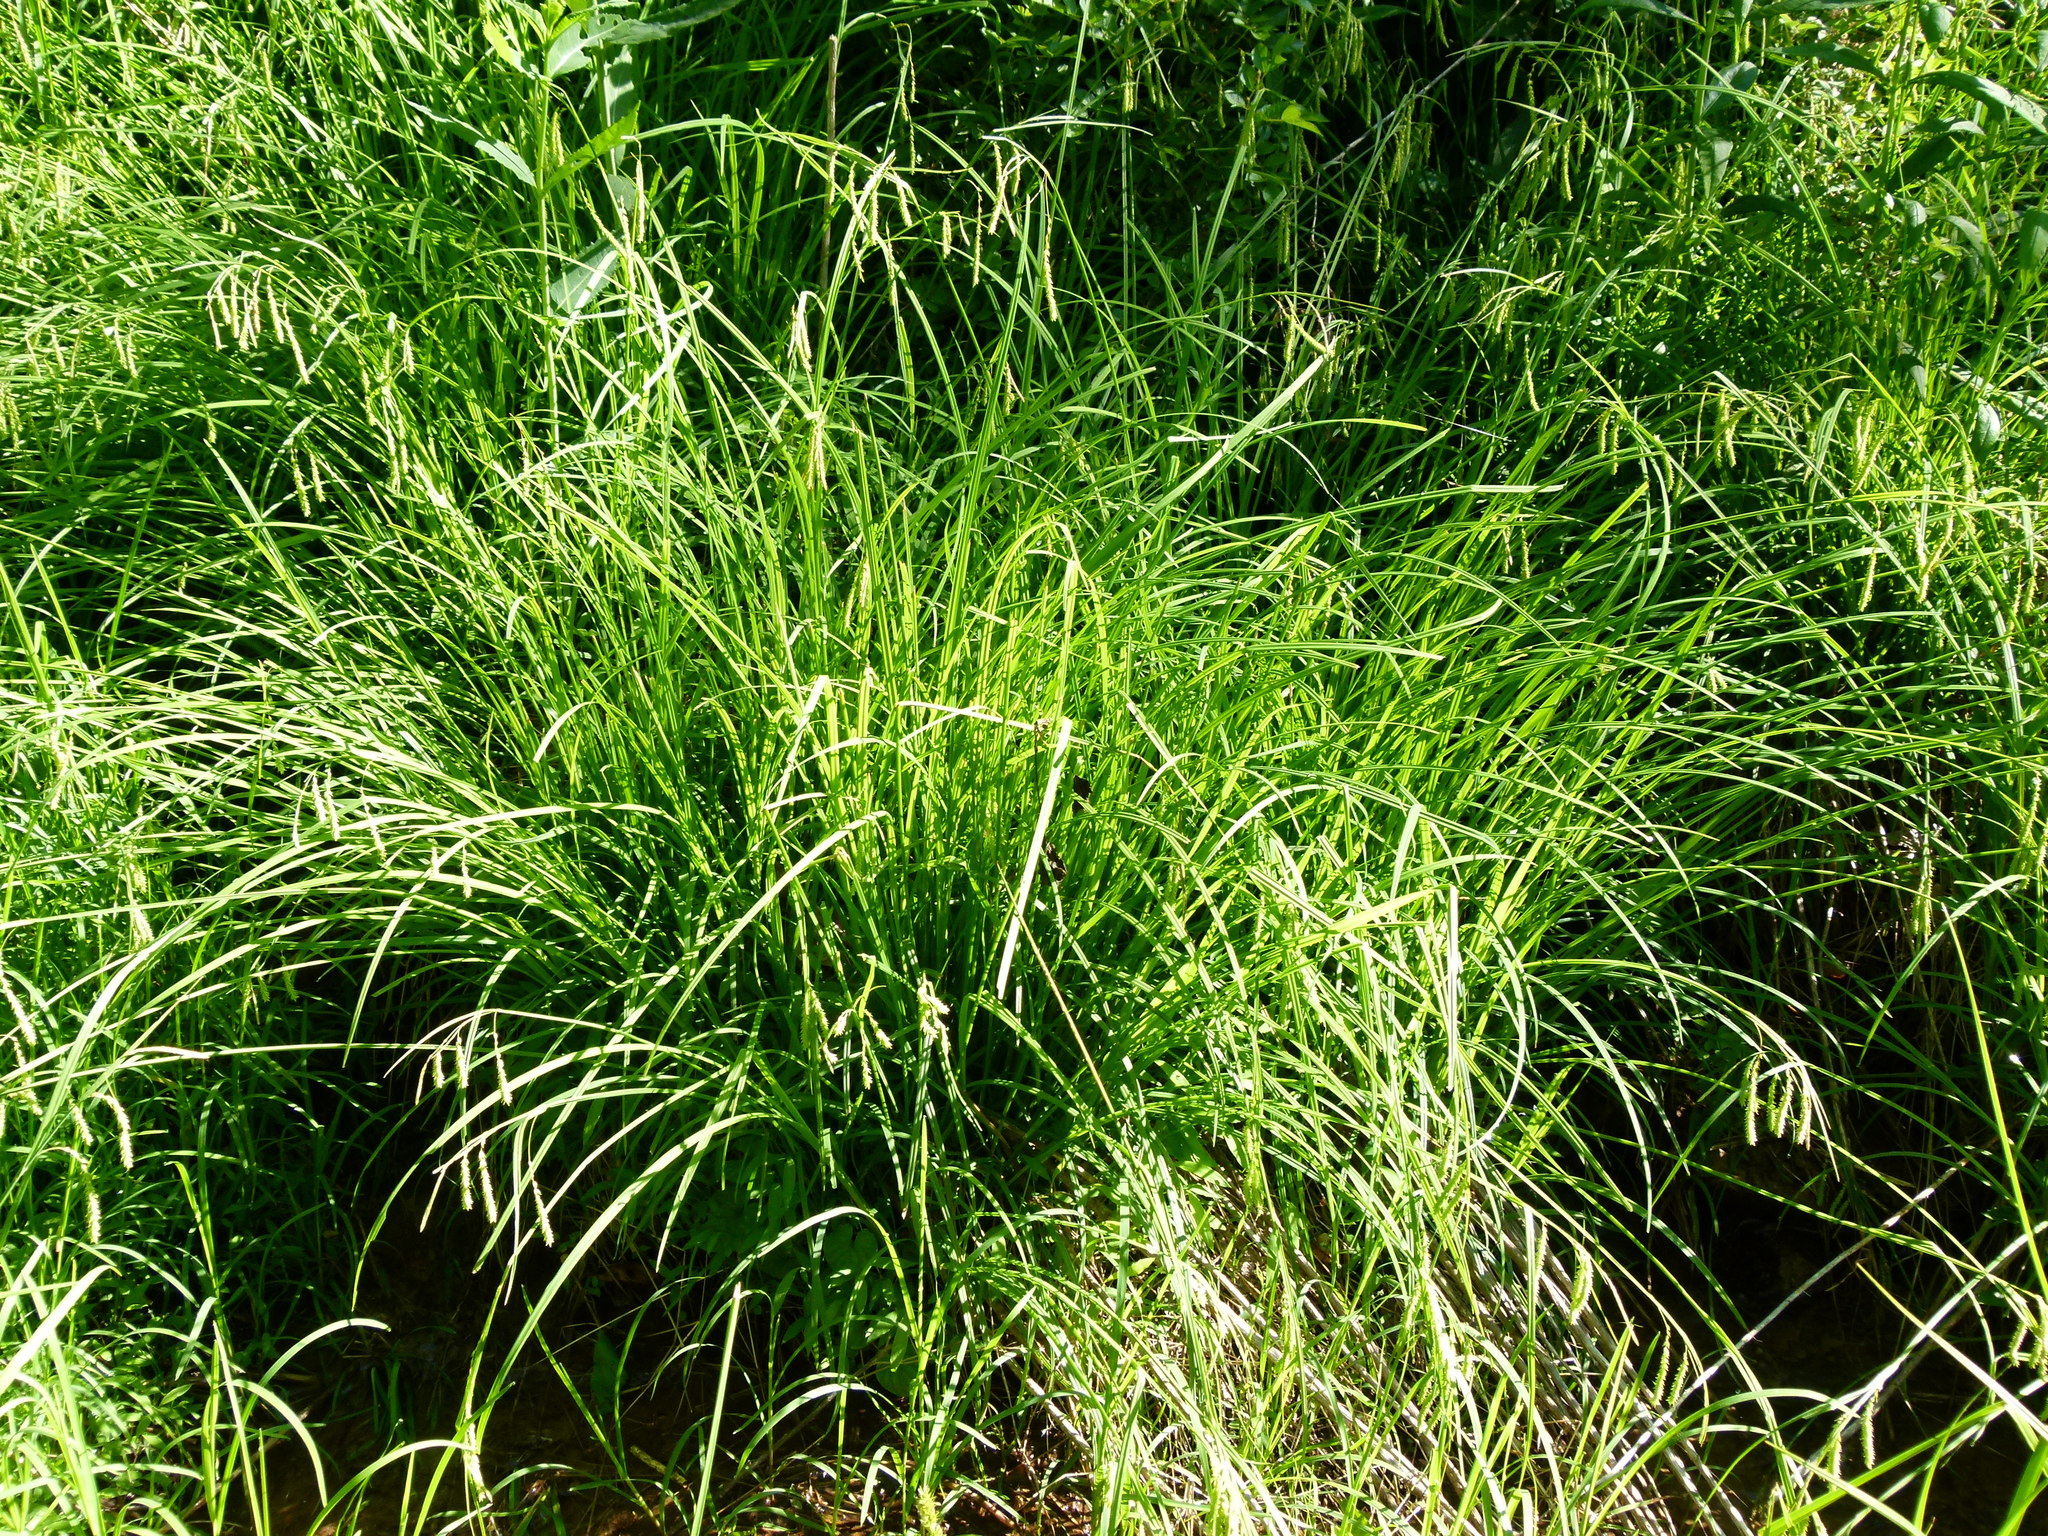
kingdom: Plantae
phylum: Tracheophyta
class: Liliopsida
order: Poales
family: Cyperaceae
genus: Carex
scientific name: Carex prasina
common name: Drooping sedge
